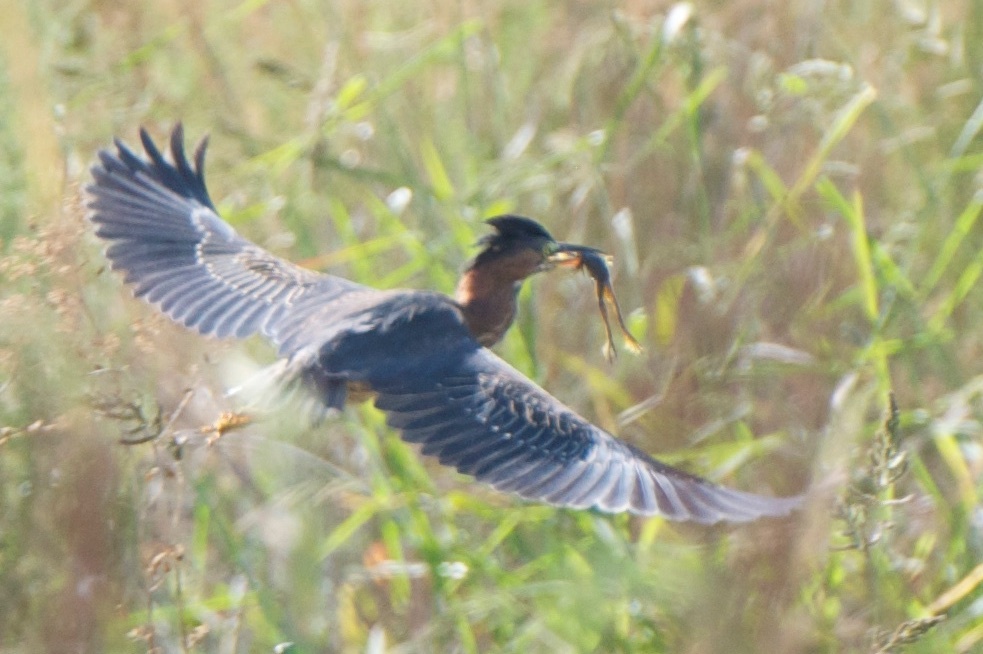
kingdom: Animalia
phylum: Chordata
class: Aves
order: Pelecaniformes
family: Ardeidae
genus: Butorides
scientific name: Butorides virescens
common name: Green heron
